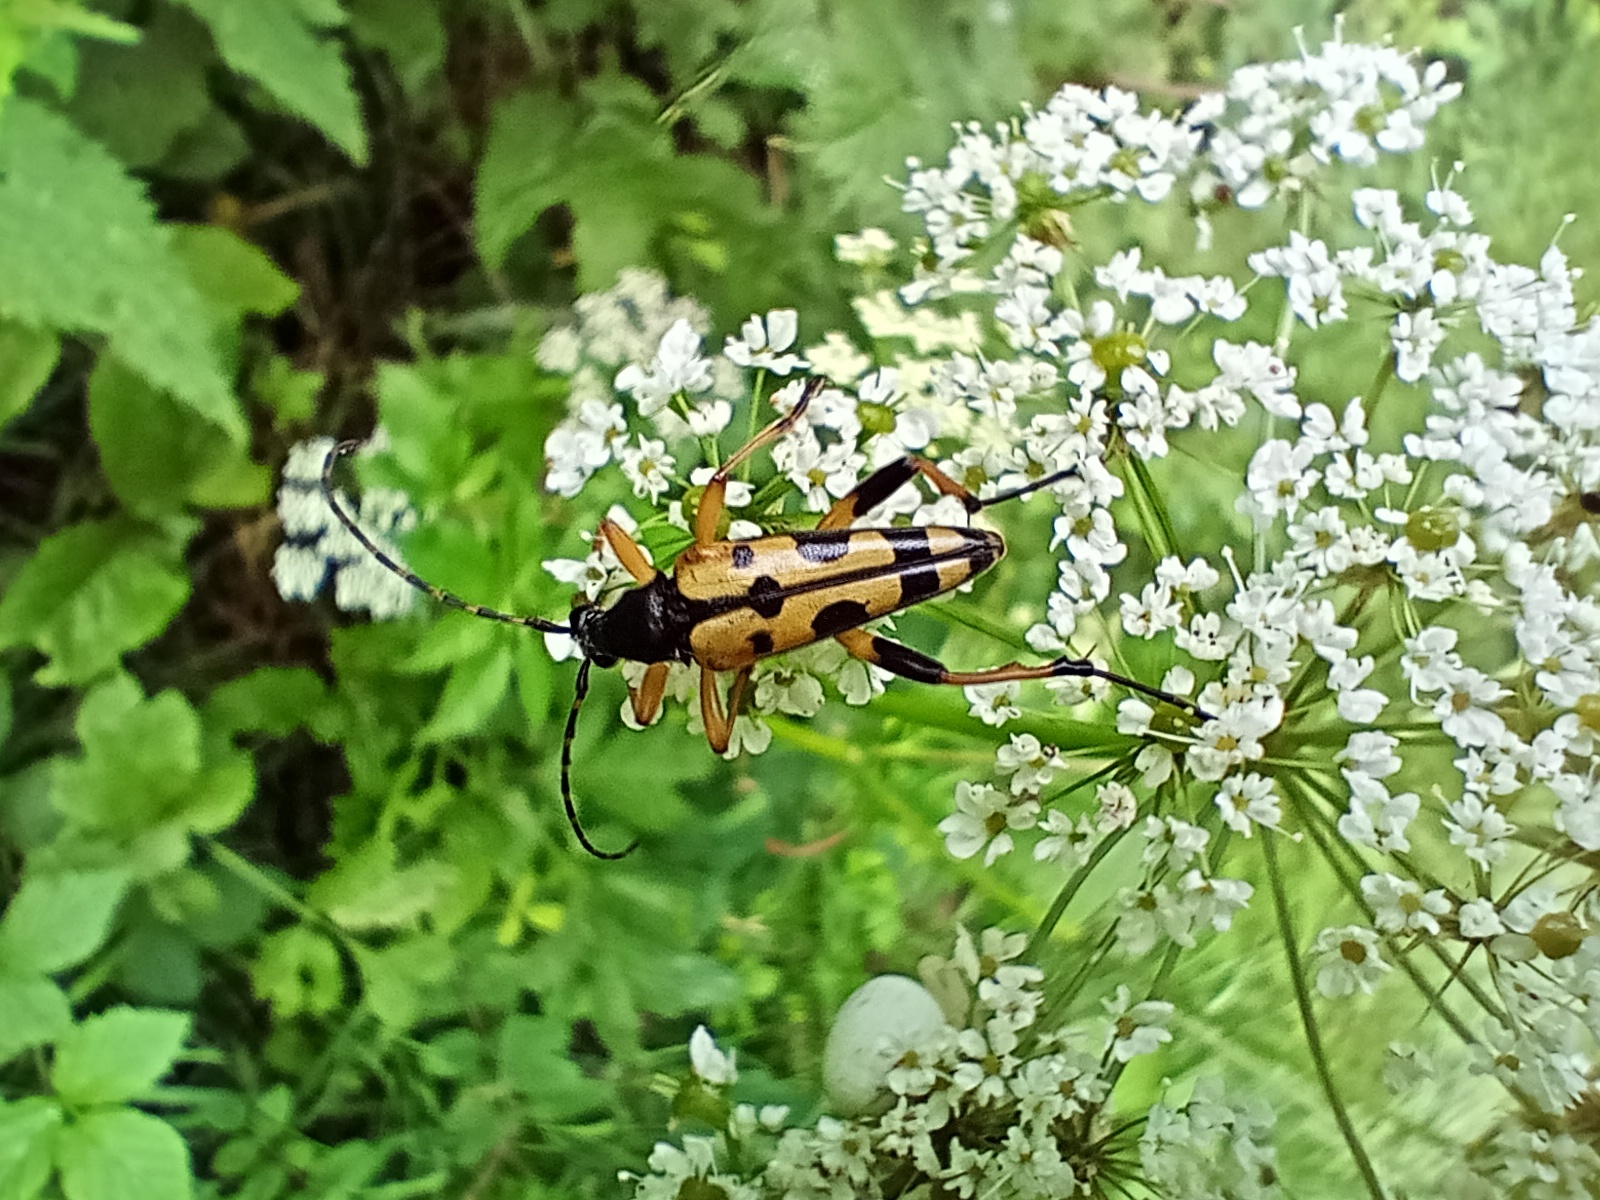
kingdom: Animalia
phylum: Arthropoda
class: Insecta
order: Coleoptera
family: Cerambycidae
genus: Rutpela
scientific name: Rutpela maculata
